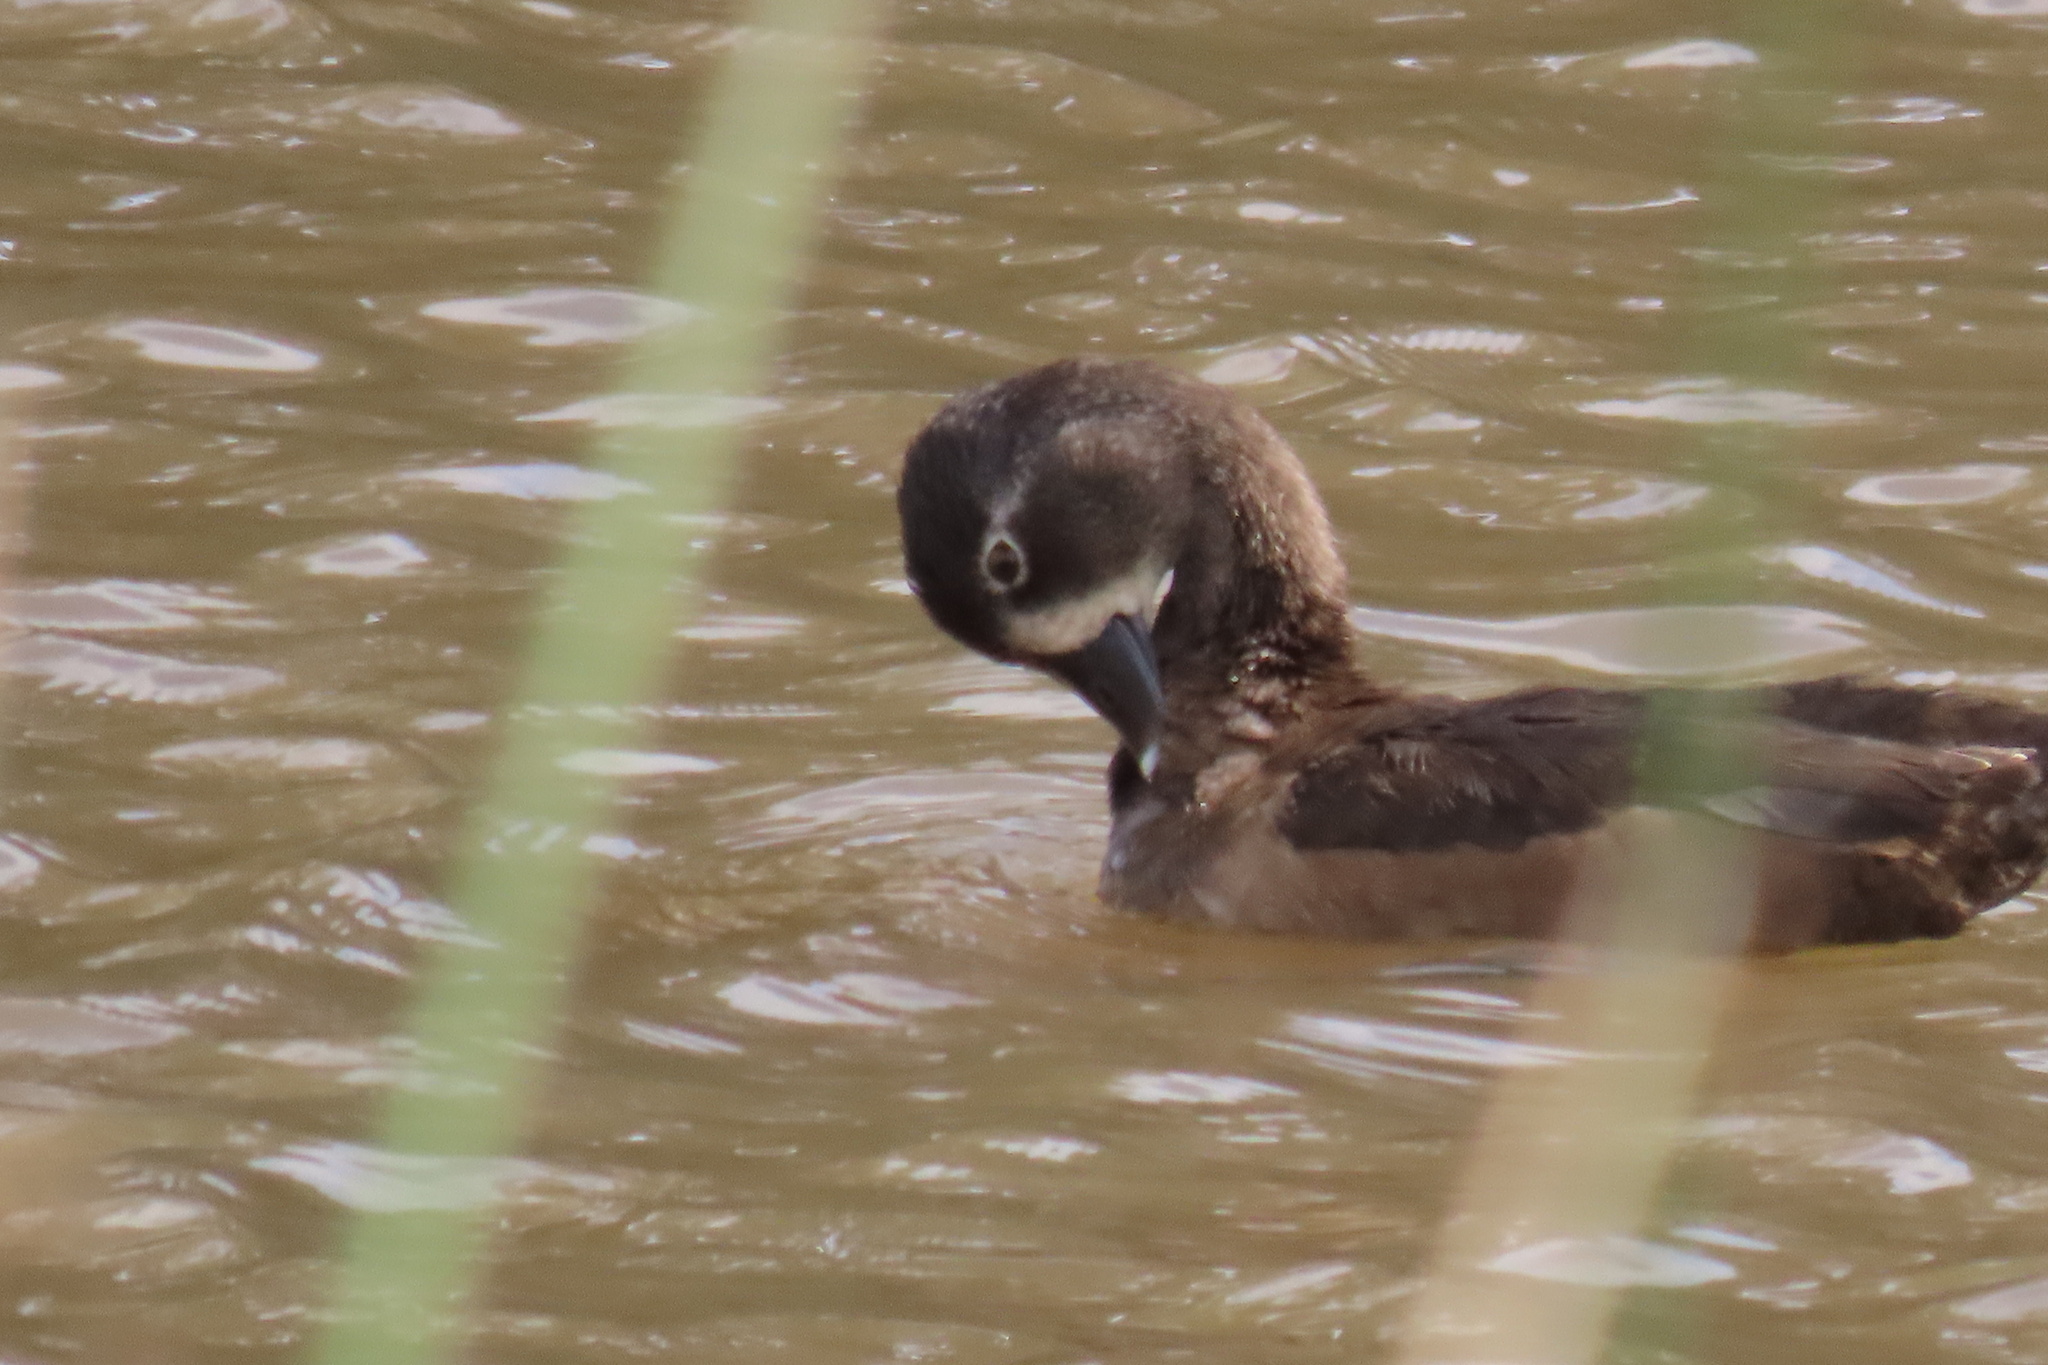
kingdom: Animalia
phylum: Chordata
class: Aves
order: Anseriformes
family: Anatidae
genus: Aythya
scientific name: Aythya collaris
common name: Ring-necked duck
